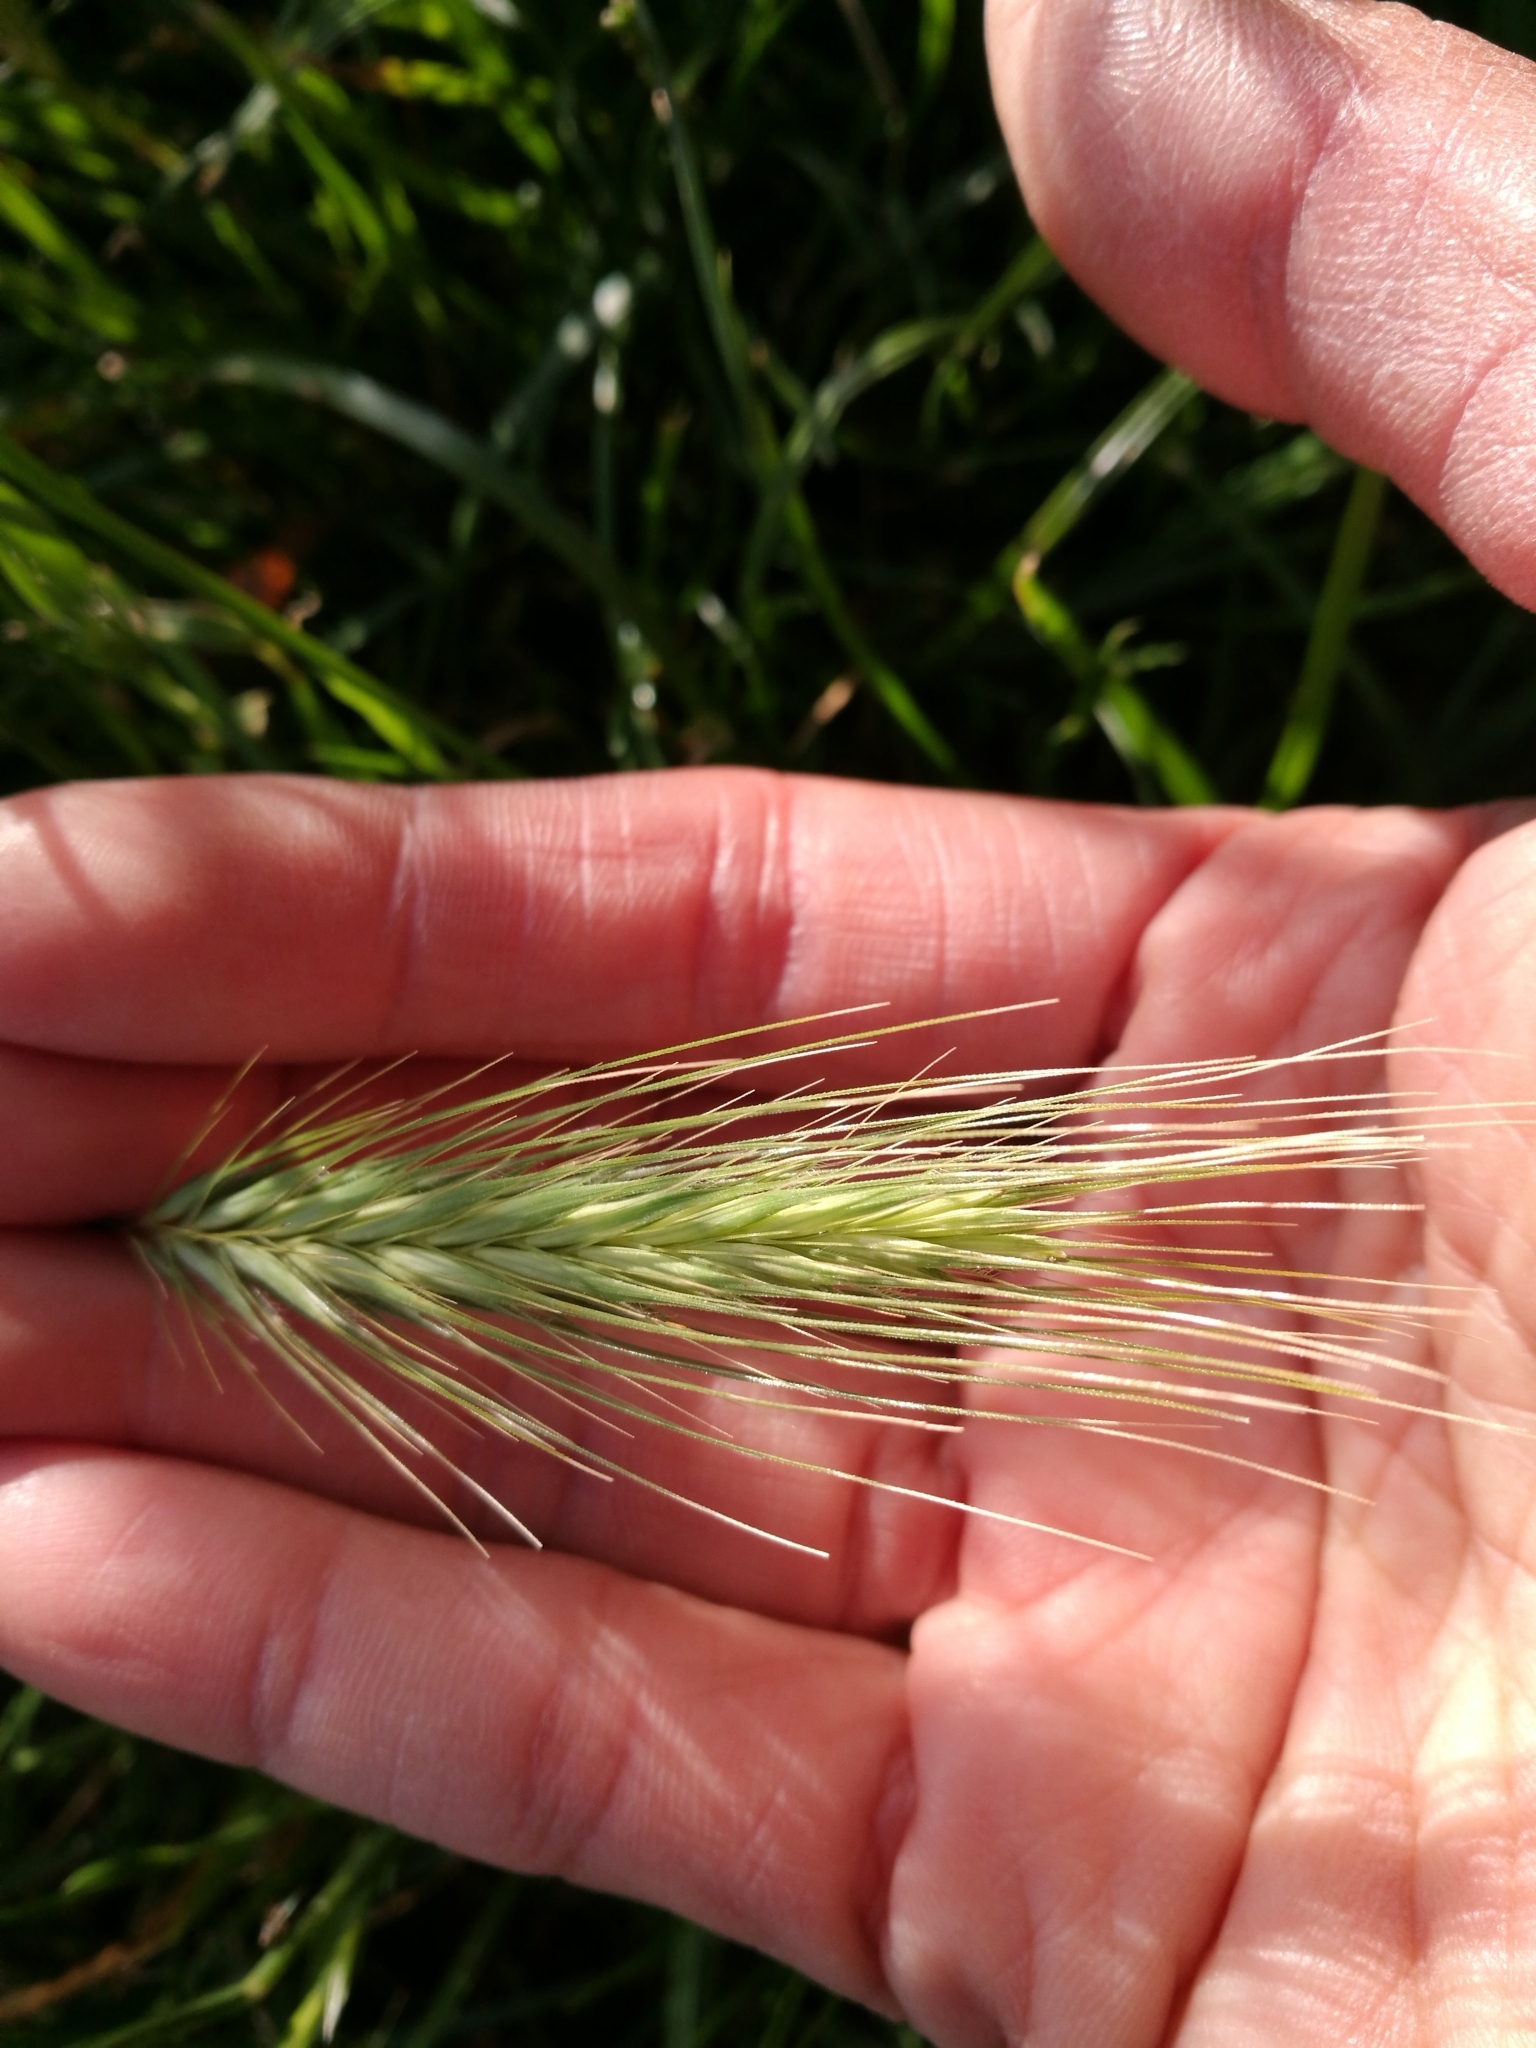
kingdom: Plantae
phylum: Tracheophyta
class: Liliopsida
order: Poales
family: Poaceae
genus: Hordeum
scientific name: Hordeum murinum
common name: Wall barley
